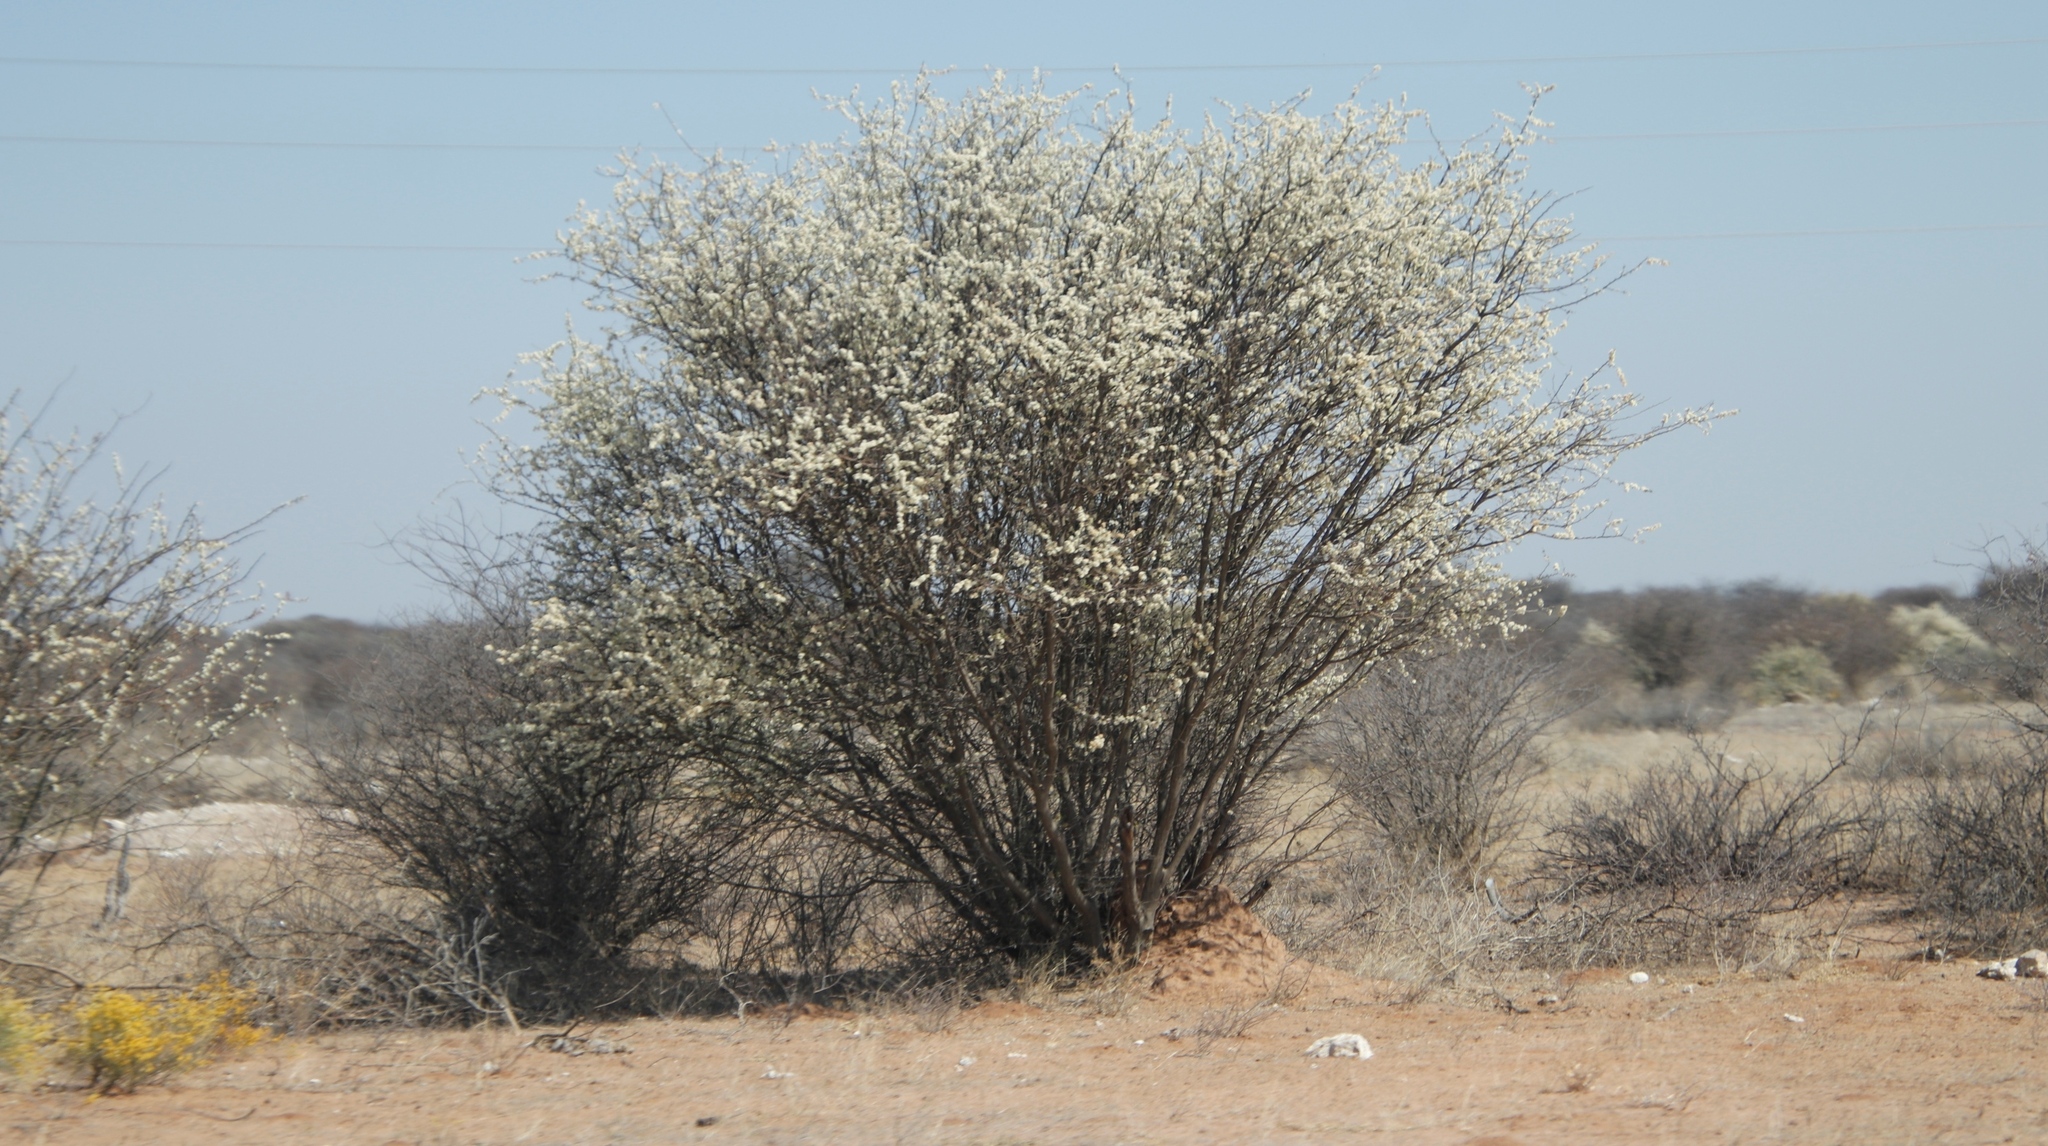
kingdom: Plantae
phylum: Tracheophyta
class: Magnoliopsida
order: Fabales
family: Fabaceae
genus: Senegalia
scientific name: Senegalia mellifera
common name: Hookthorn
